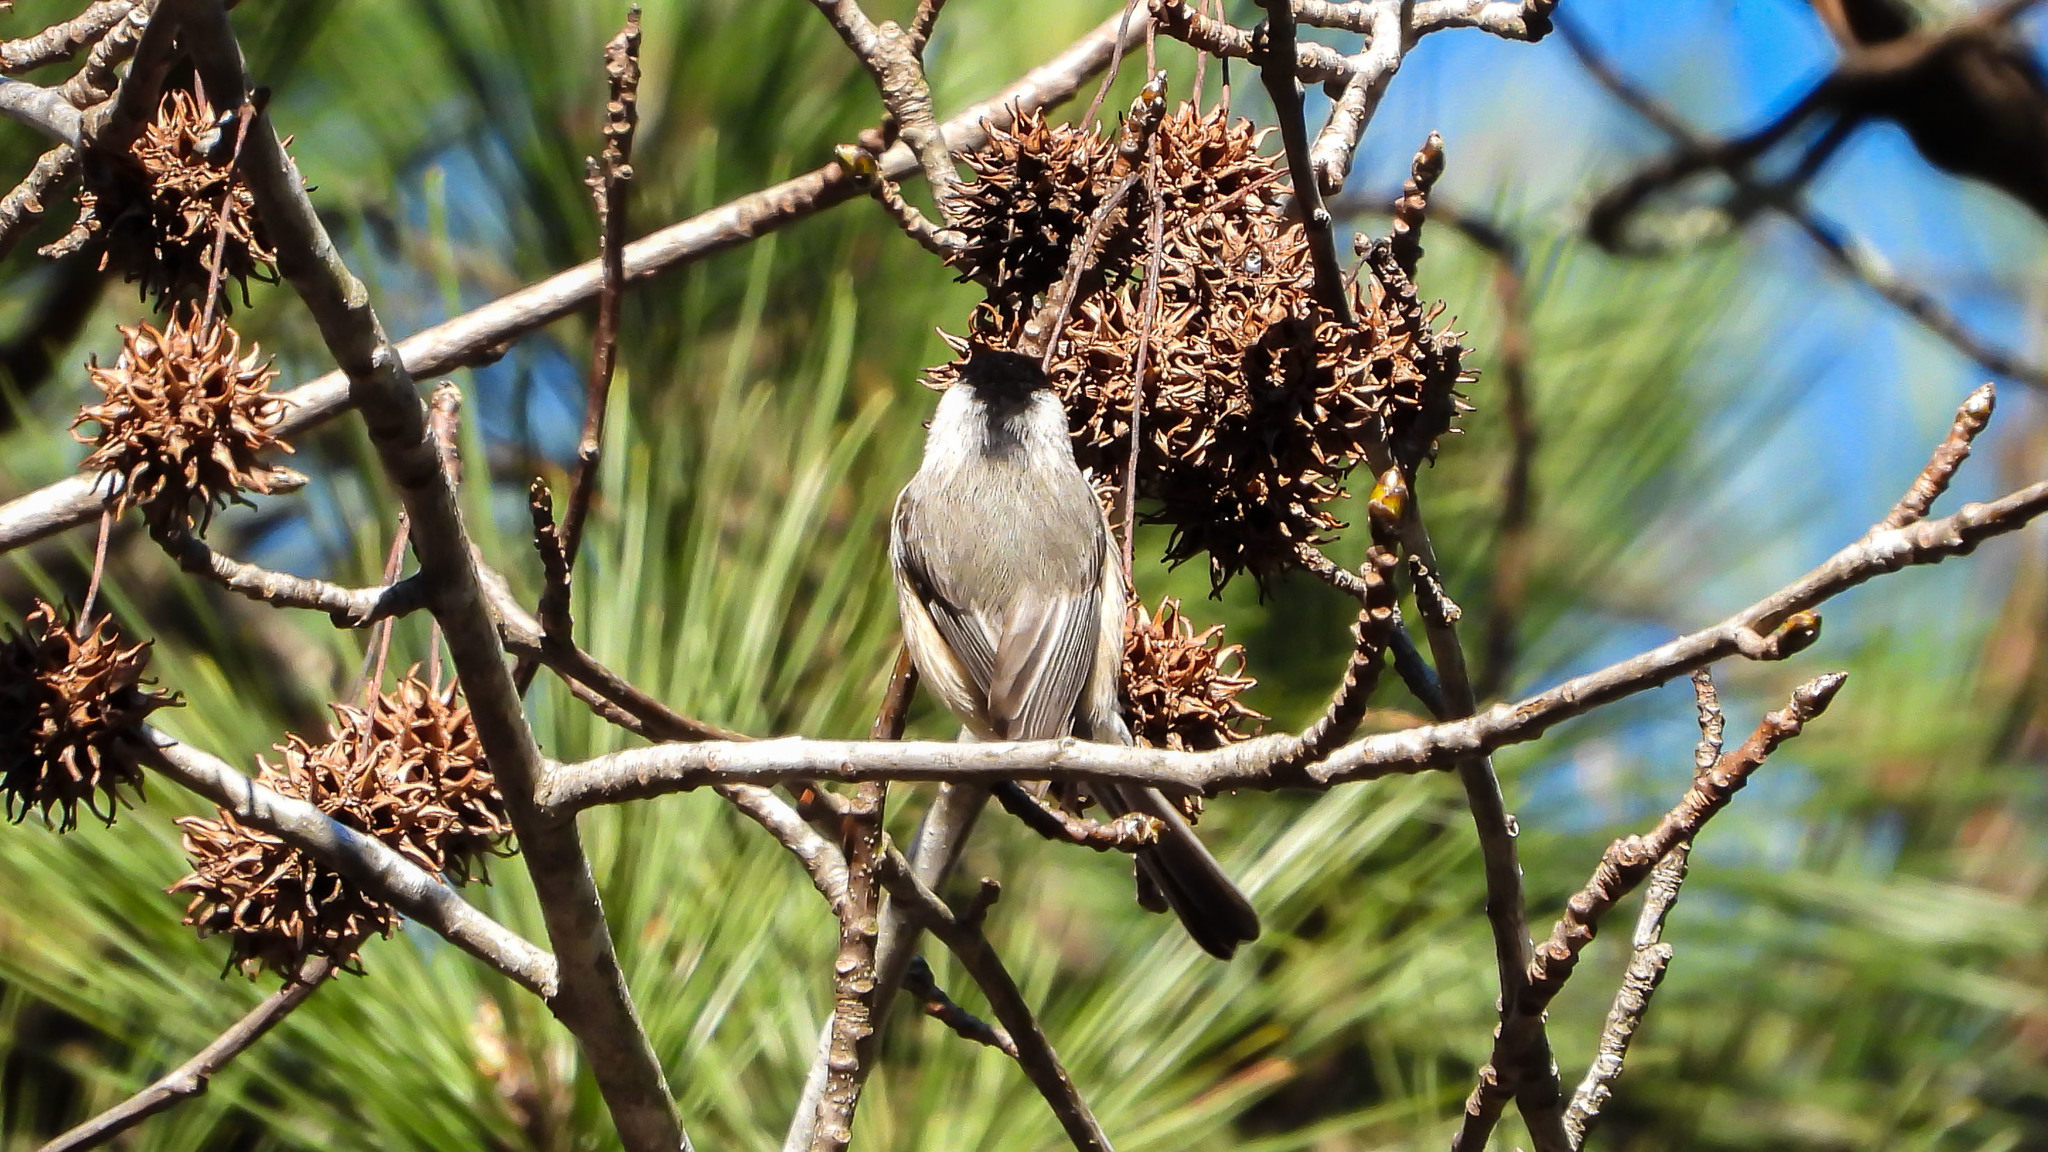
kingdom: Animalia
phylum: Chordata
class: Aves
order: Passeriformes
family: Paridae
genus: Poecile
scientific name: Poecile carolinensis
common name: Carolina chickadee
